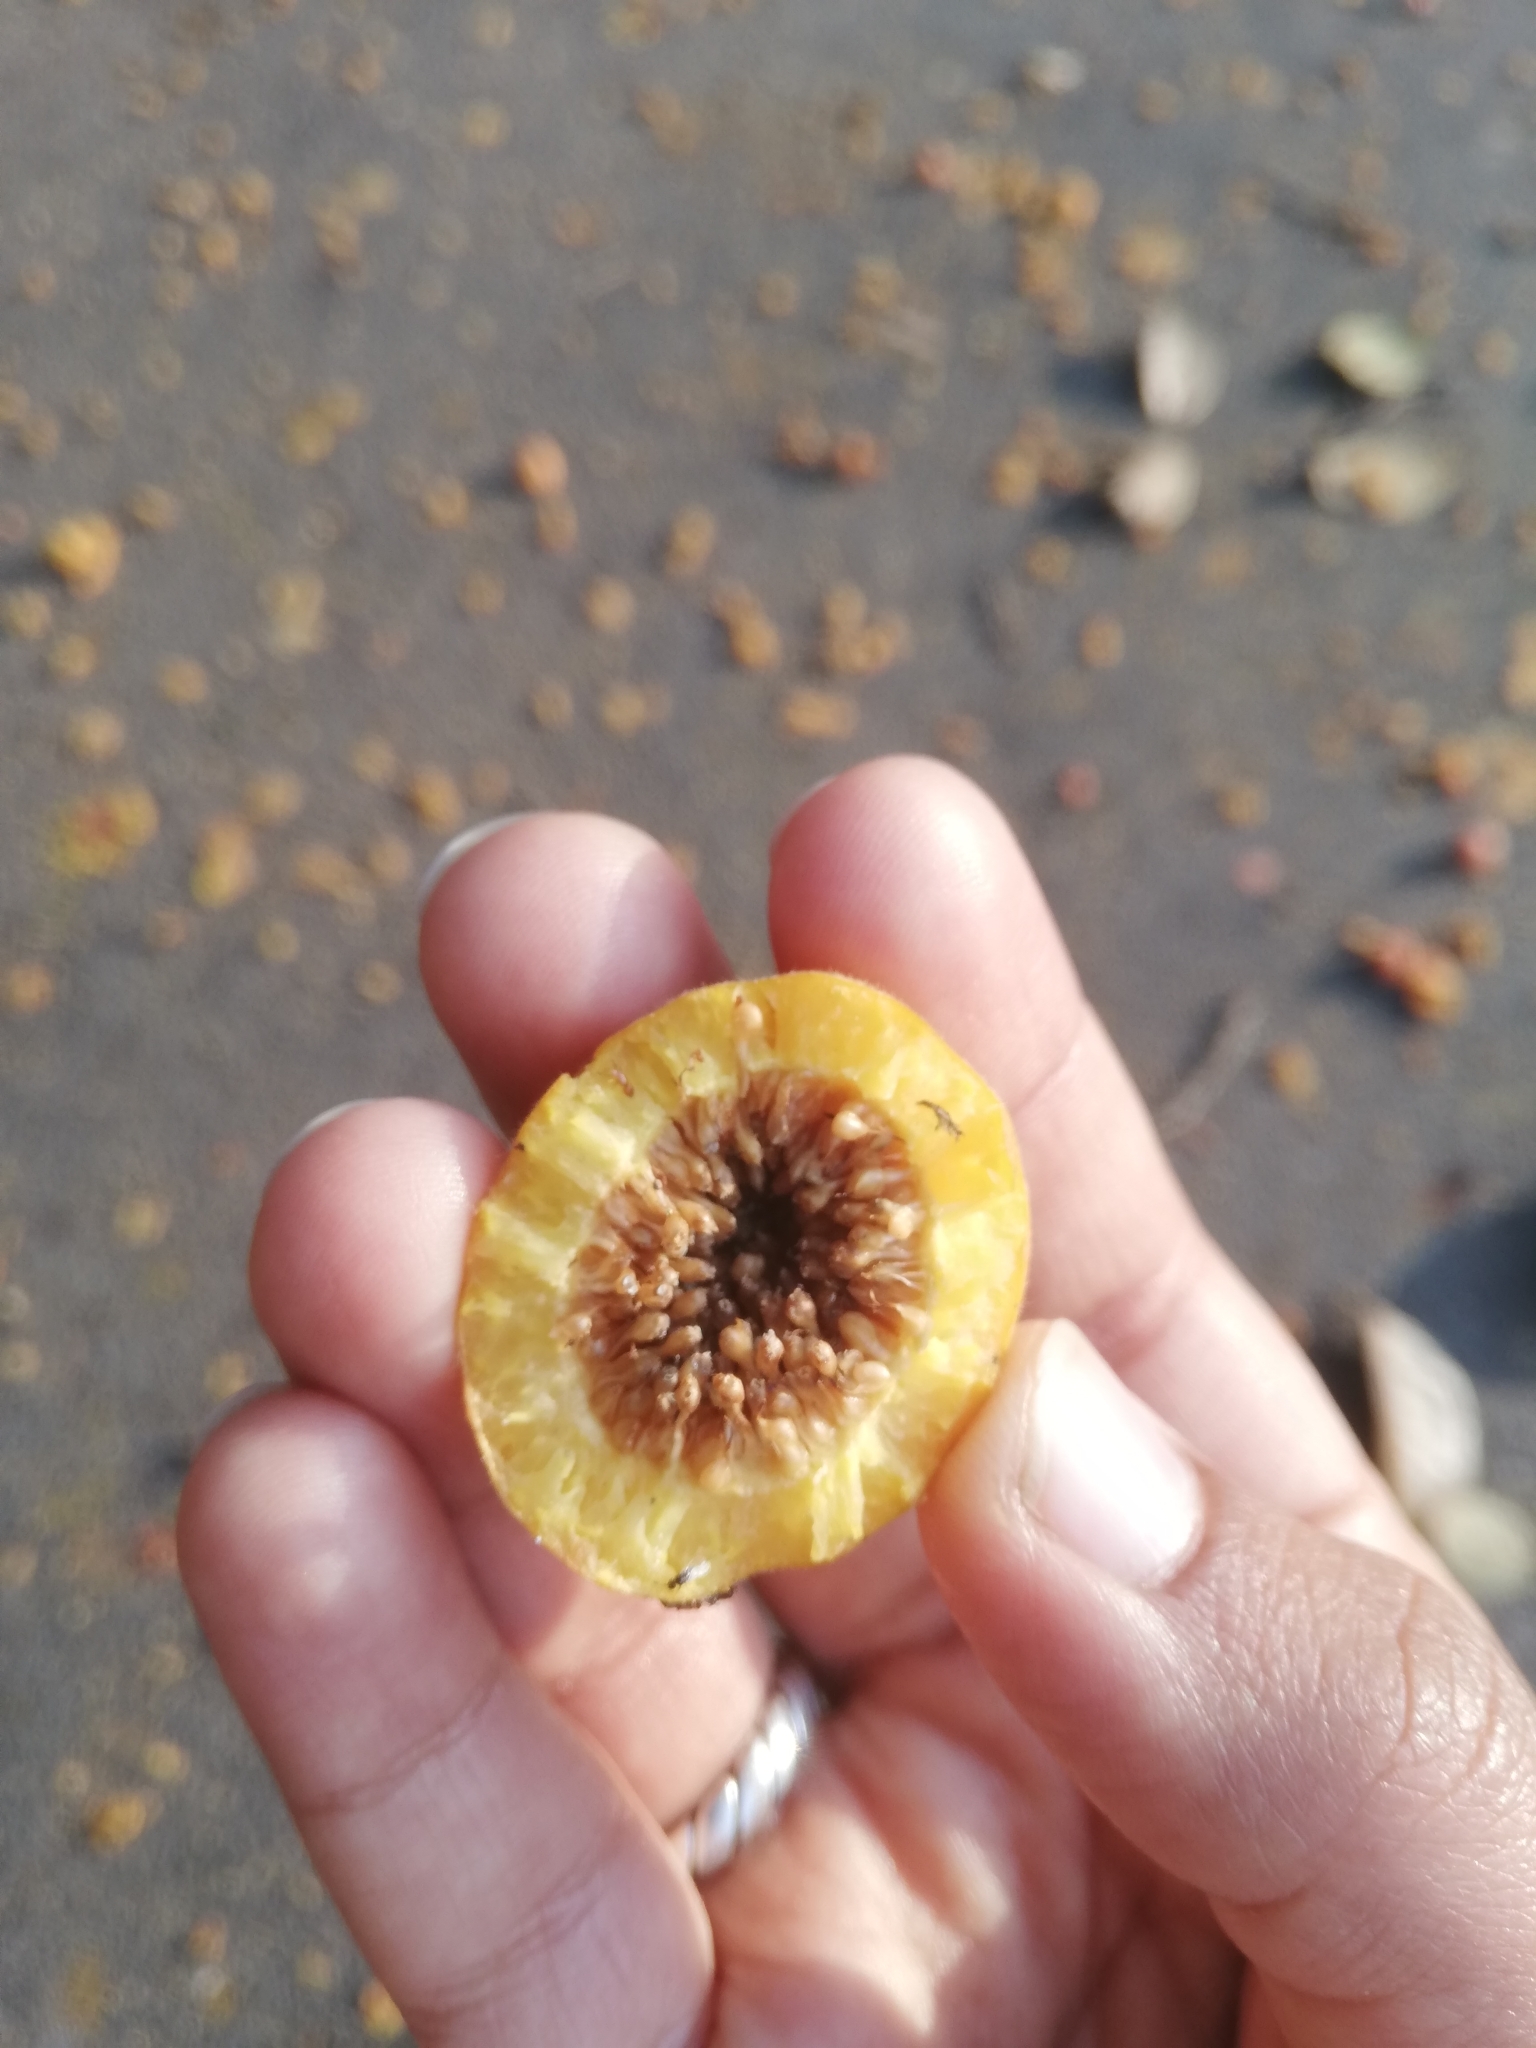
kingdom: Plantae
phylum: Tracheophyta
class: Magnoliopsida
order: Rosales
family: Moraceae
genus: Ficus
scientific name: Ficus drupacea
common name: Drupe fig
